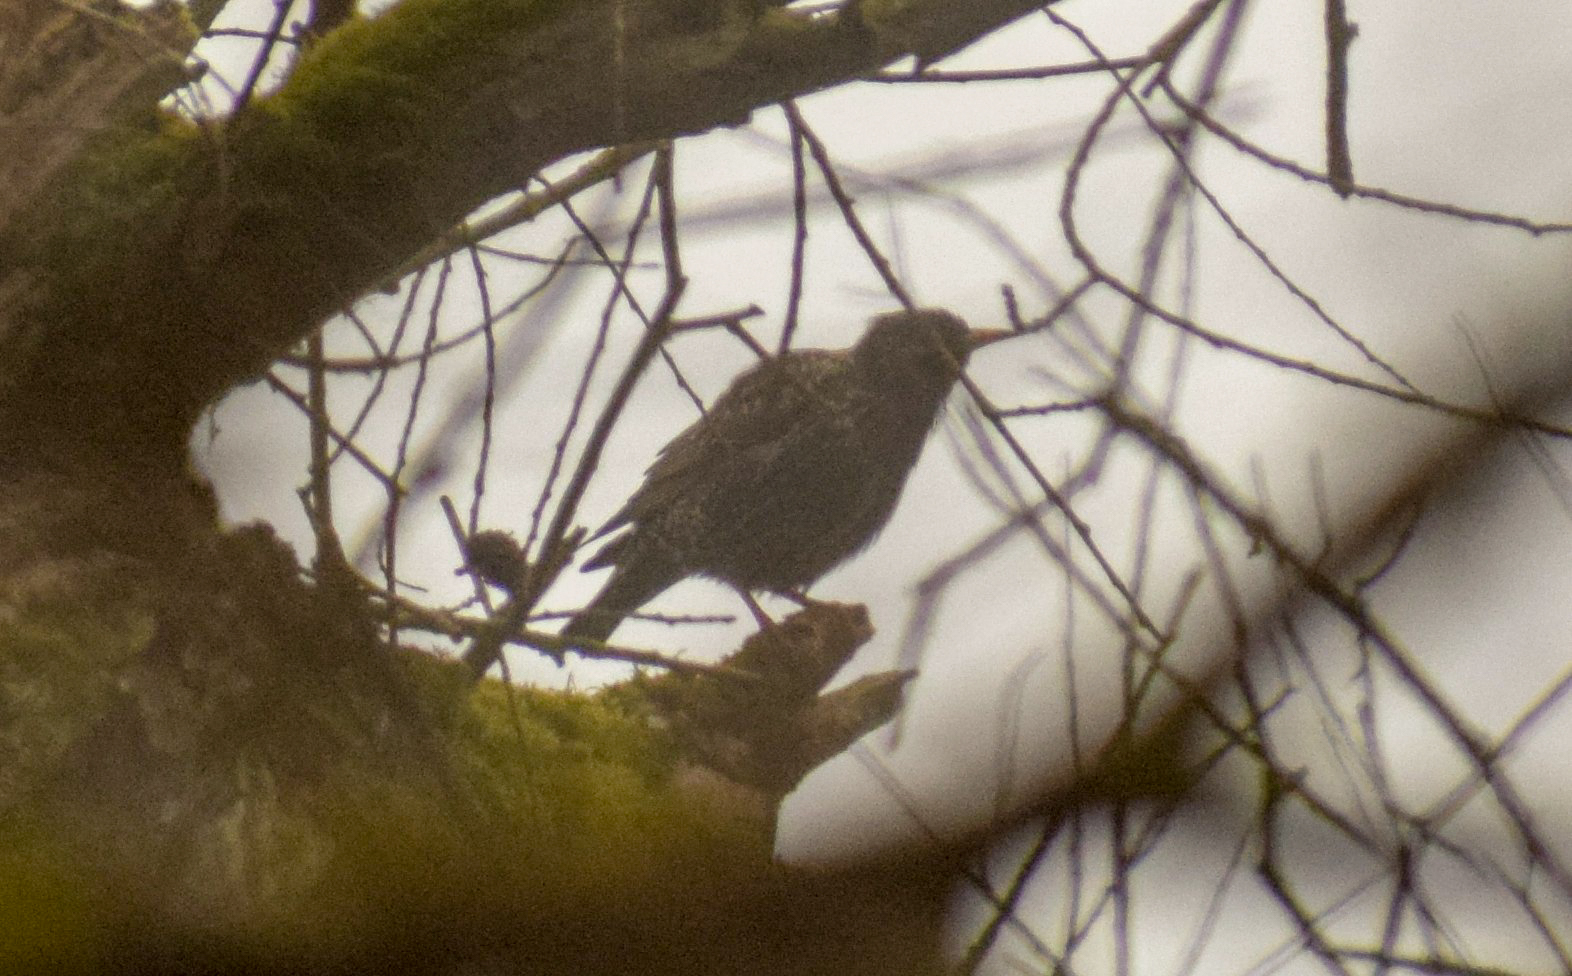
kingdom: Animalia
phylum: Chordata
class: Aves
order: Passeriformes
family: Sturnidae
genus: Sturnus
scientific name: Sturnus vulgaris
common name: Common starling
